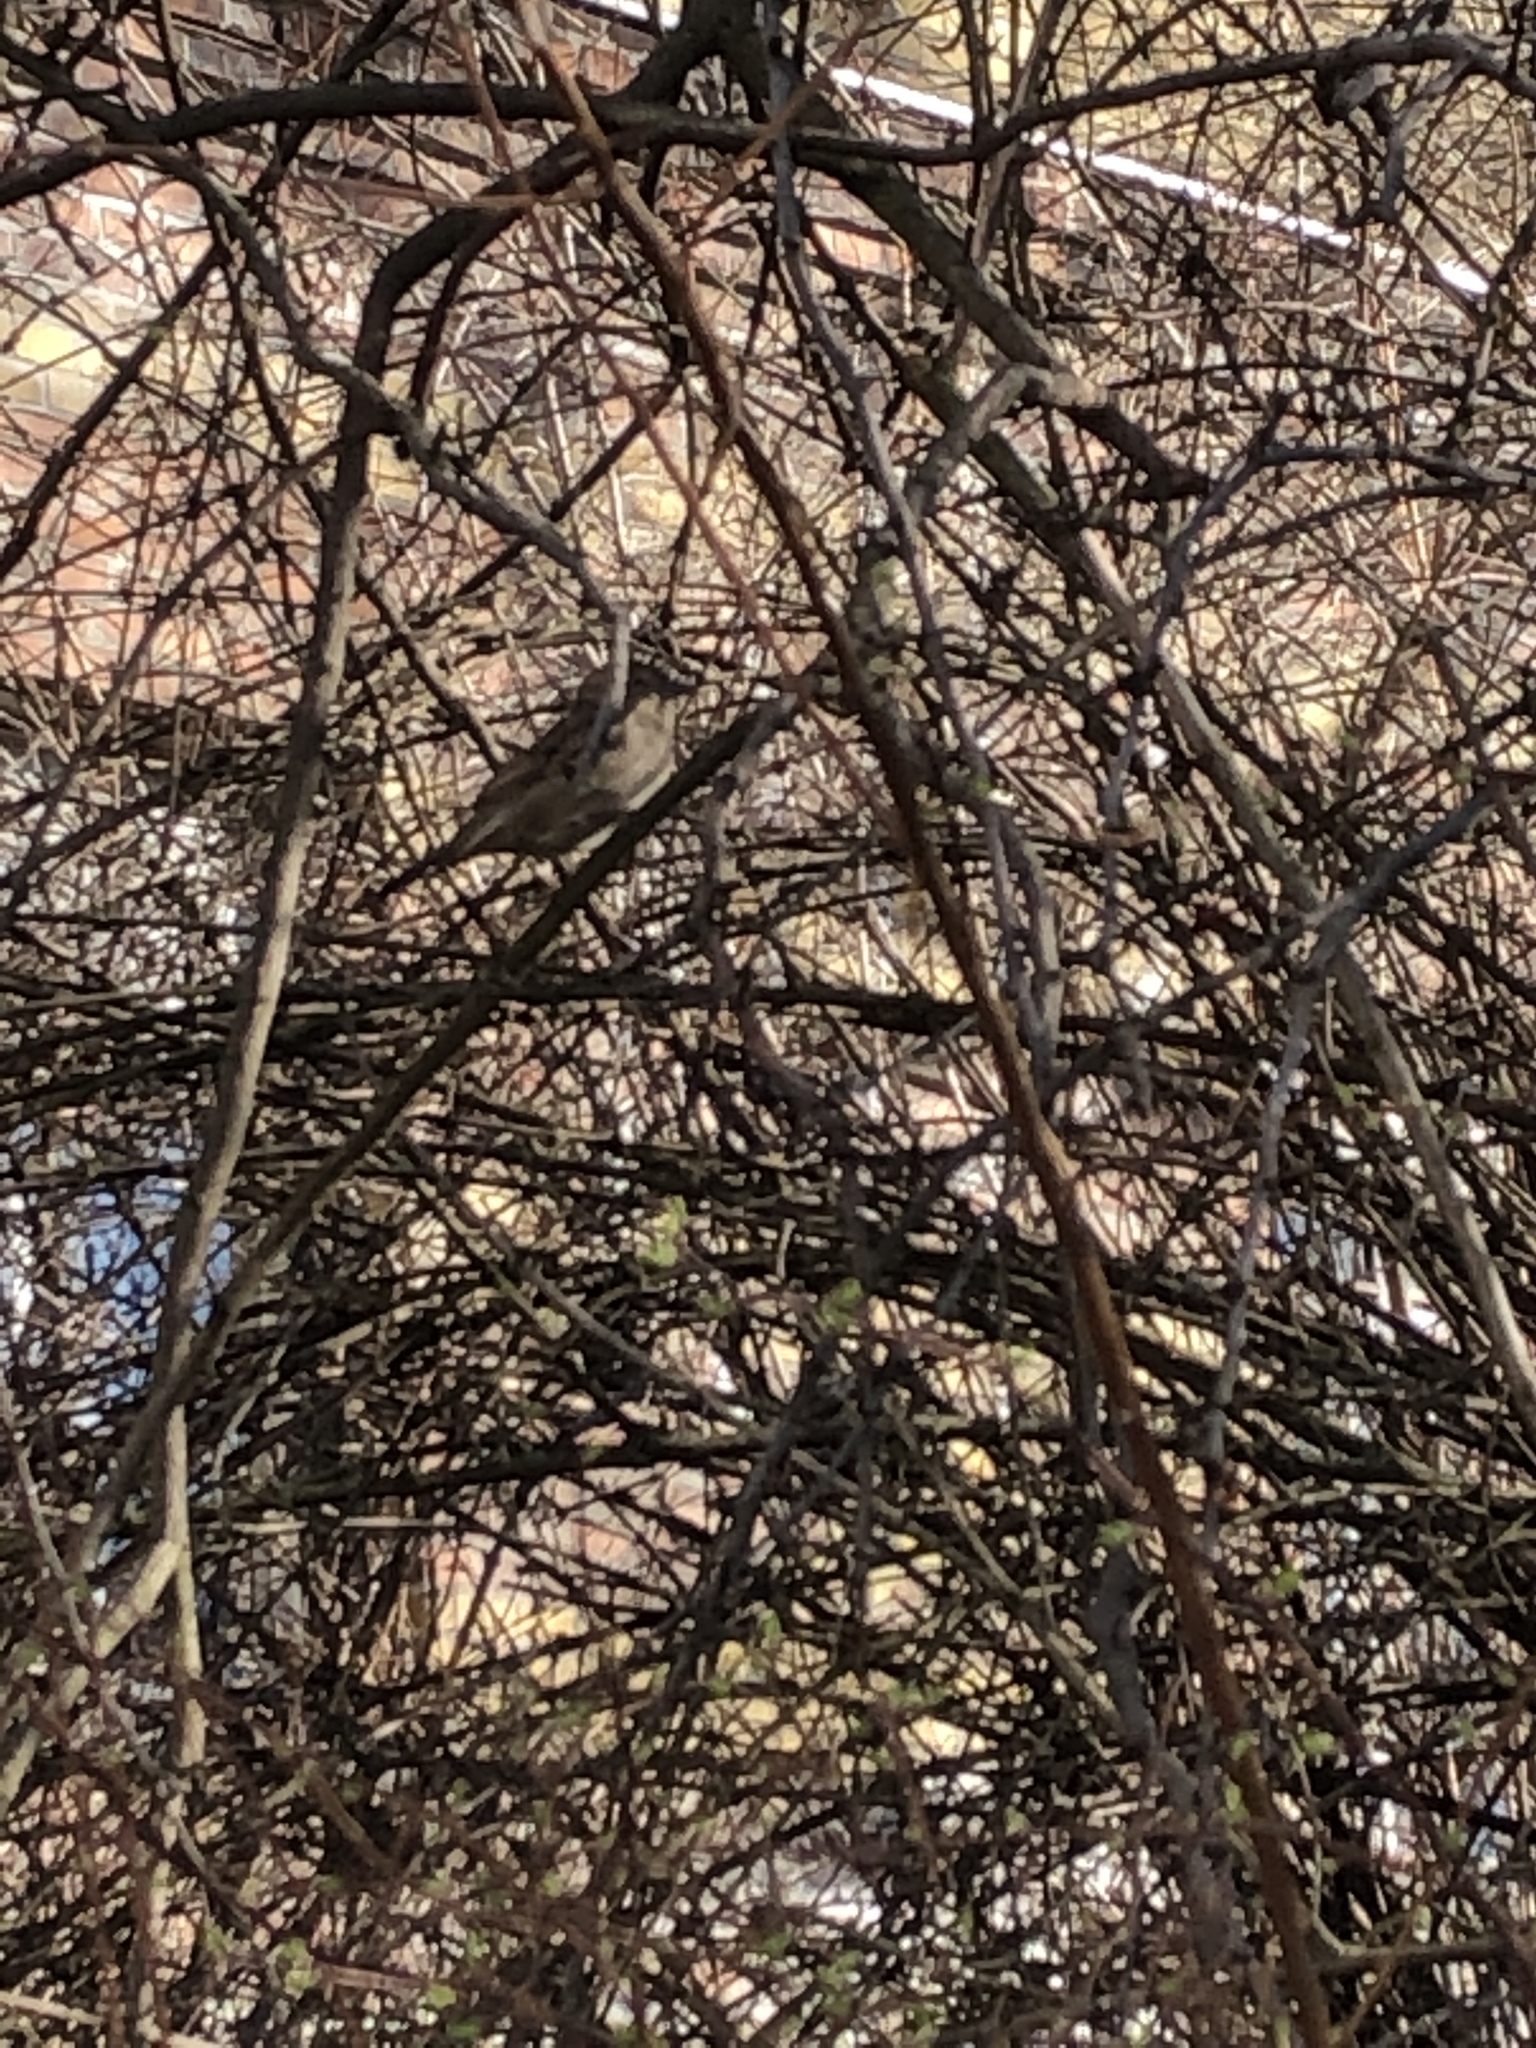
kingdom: Animalia
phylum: Chordata
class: Aves
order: Passeriformes
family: Passeridae
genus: Passer
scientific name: Passer domesticus
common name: House sparrow
